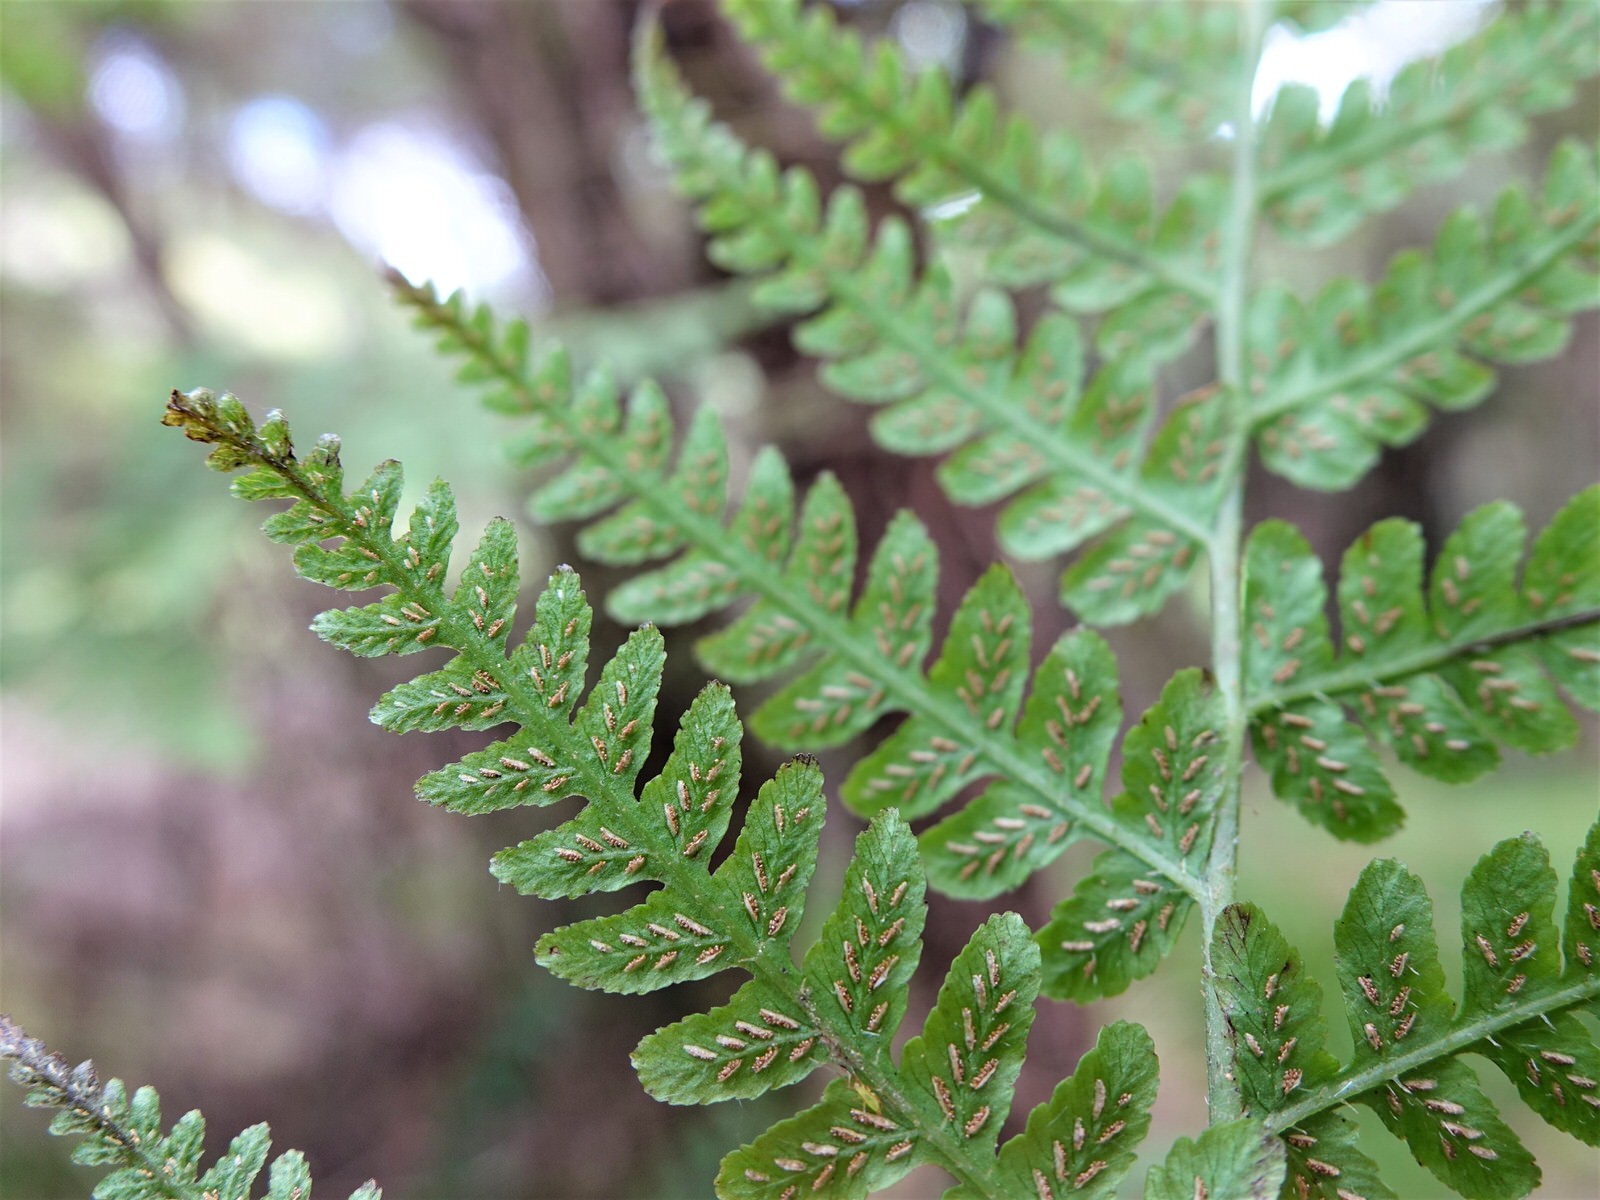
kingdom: Plantae
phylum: Tracheophyta
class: Polypodiopsida
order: Polypodiales
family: Athyriaceae
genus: Diplazium
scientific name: Diplazium congruum
